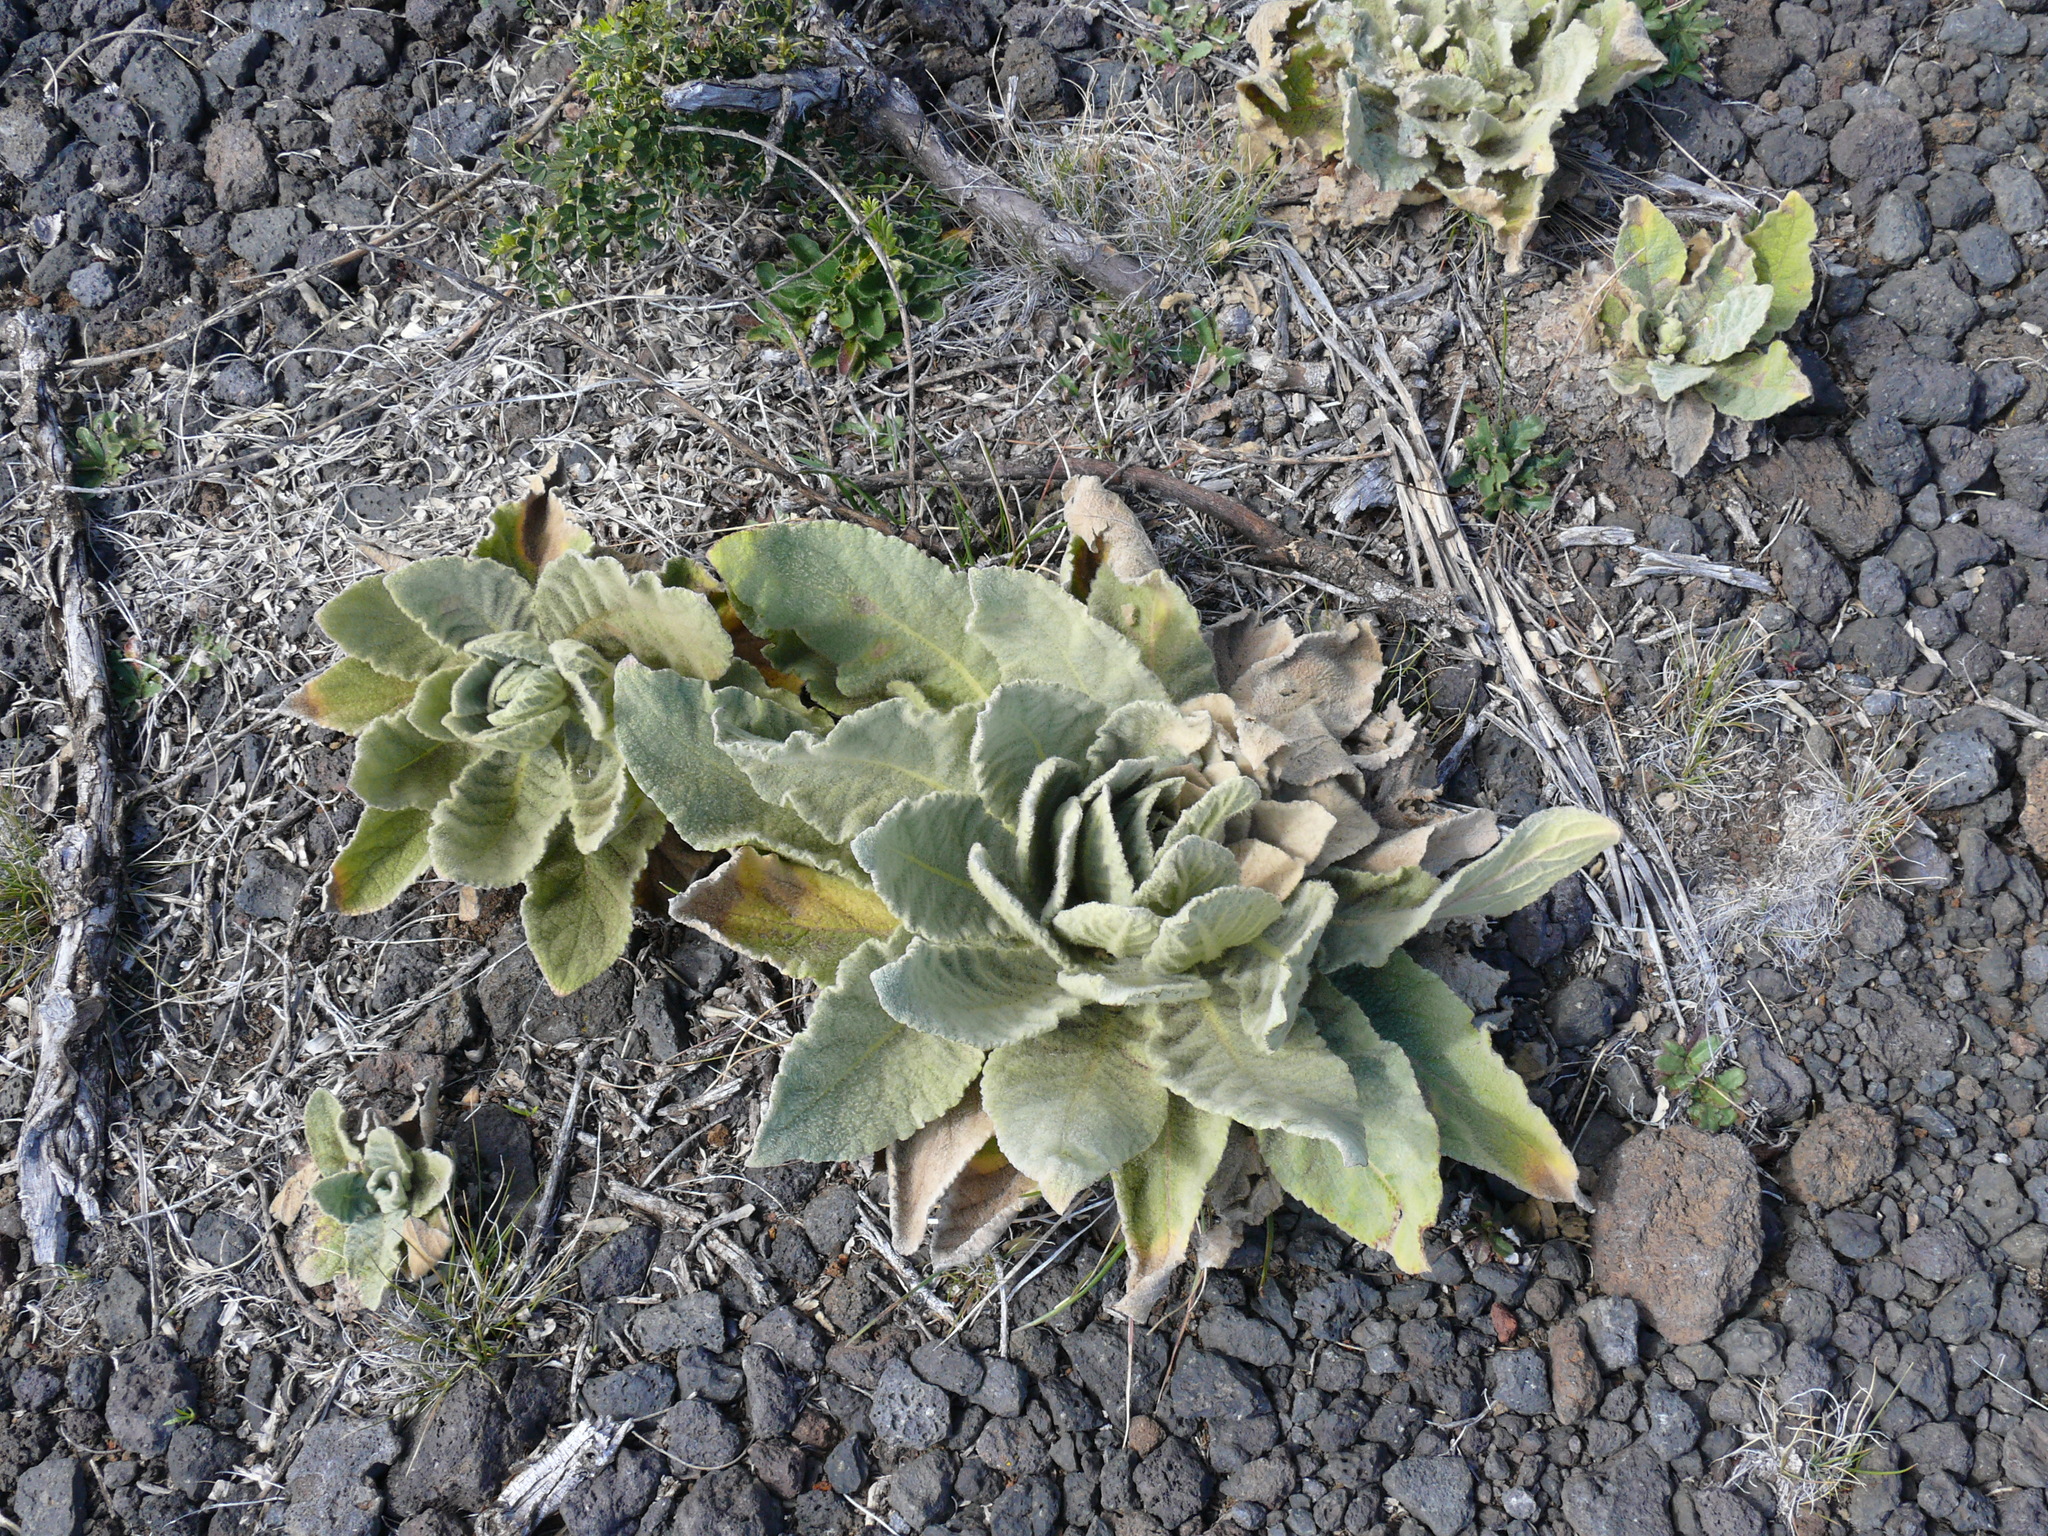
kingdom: Plantae
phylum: Tracheophyta
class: Magnoliopsida
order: Lamiales
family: Scrophulariaceae
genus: Verbascum
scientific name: Verbascum thapsus
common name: Common mullein
